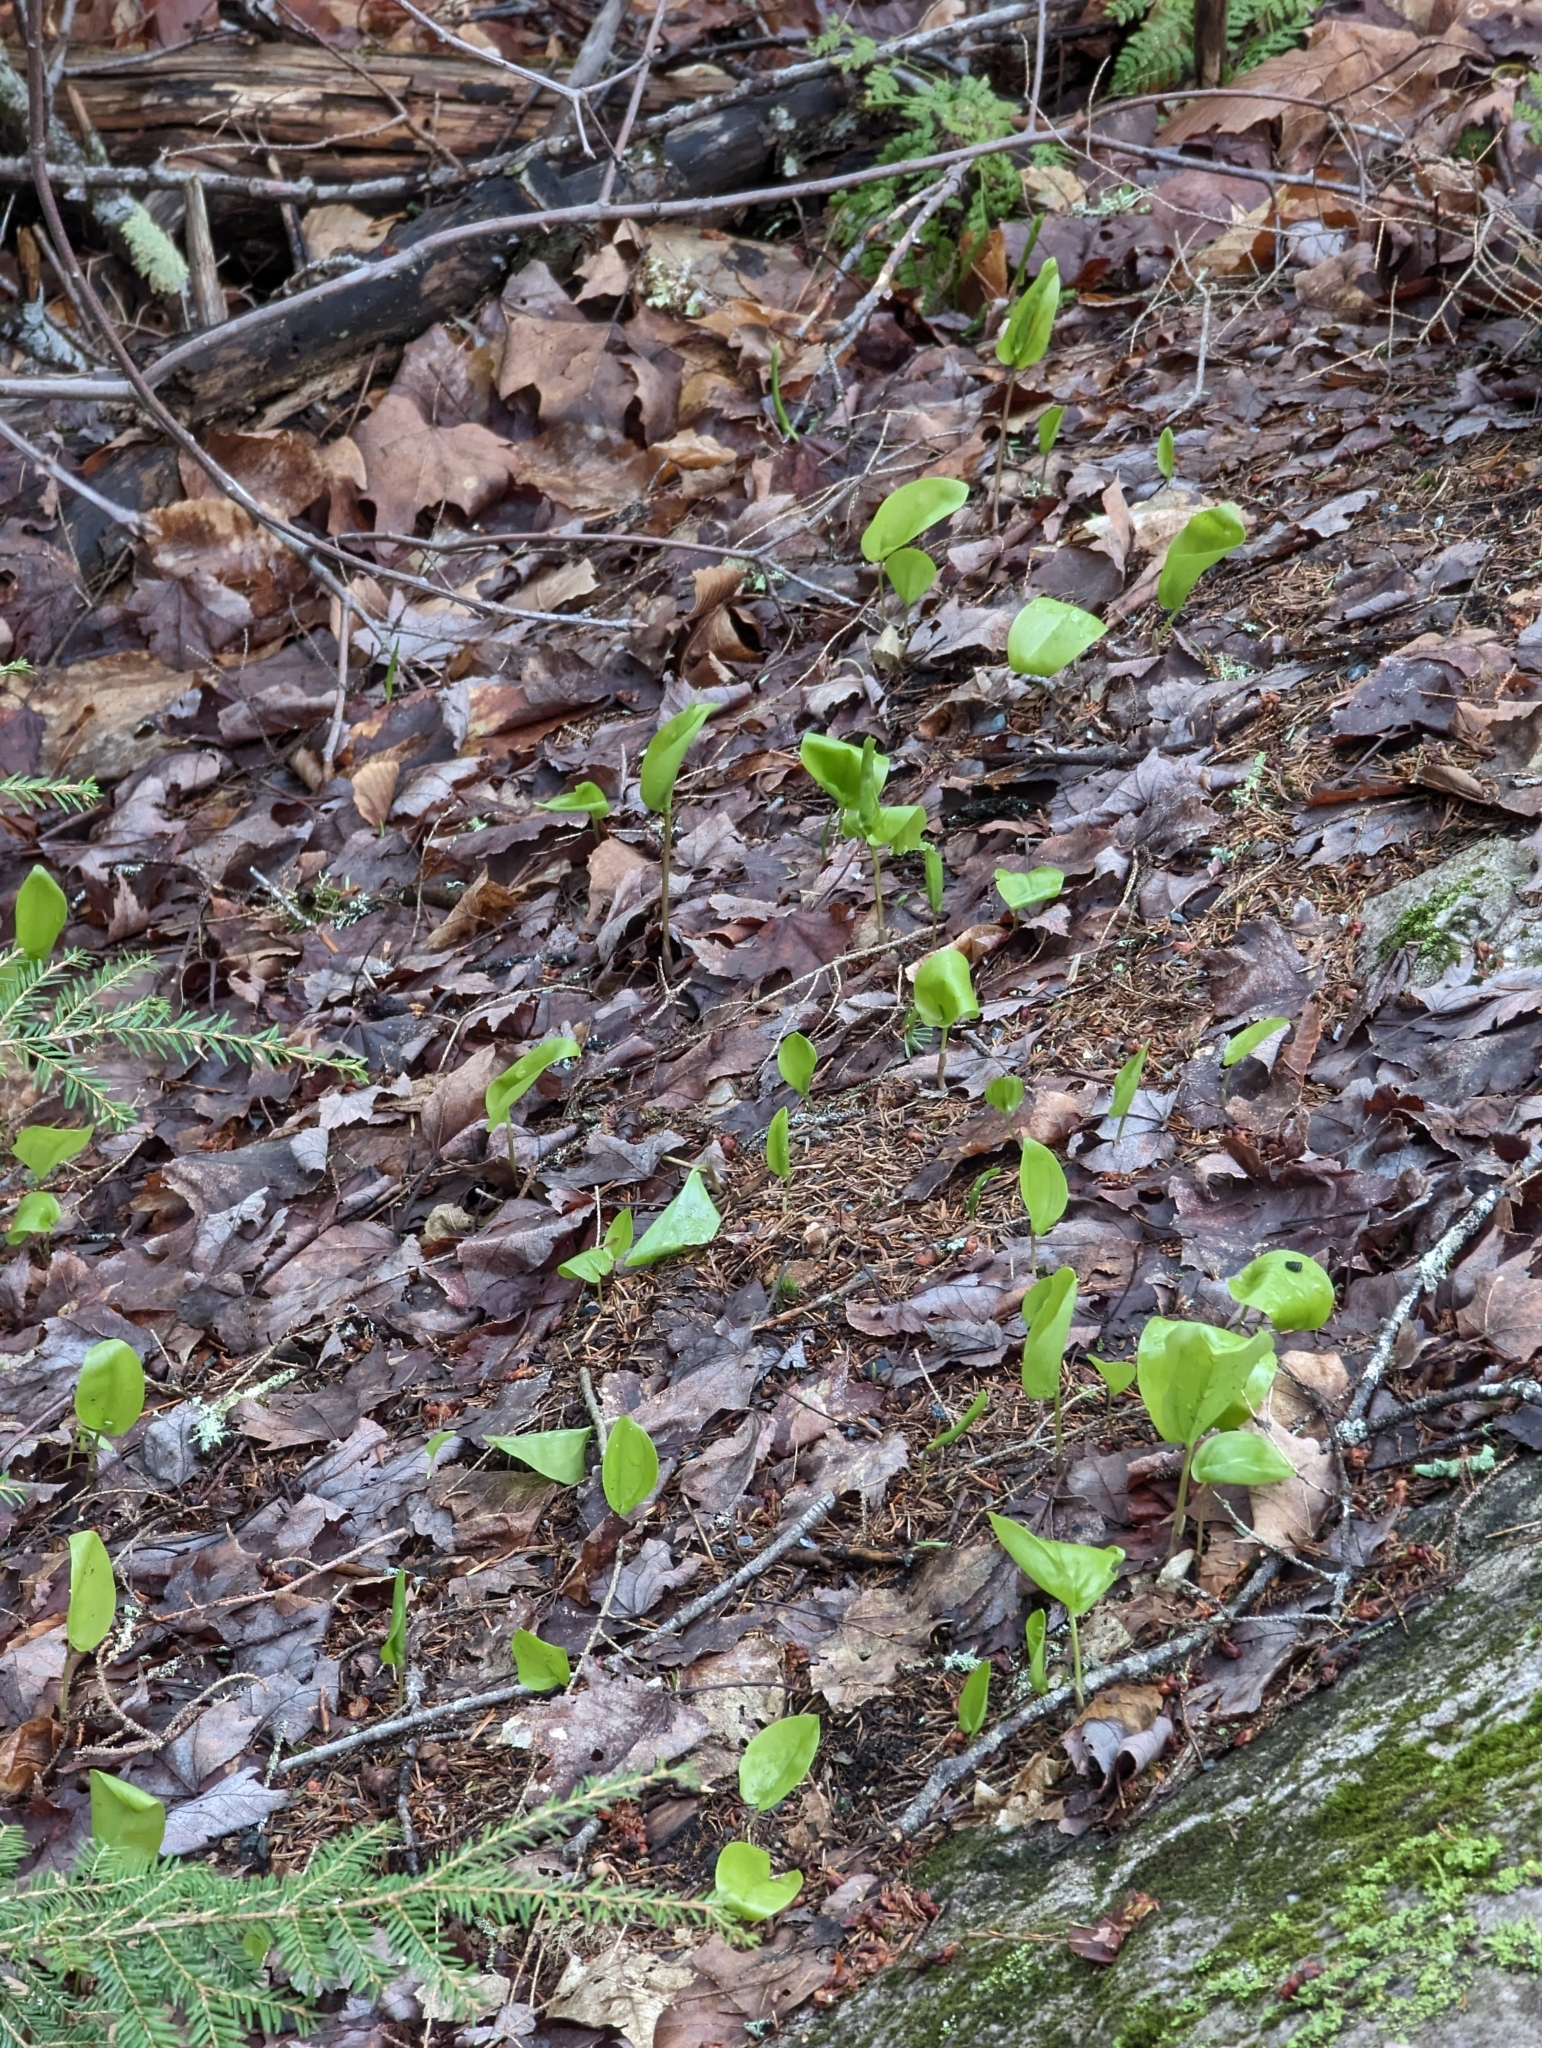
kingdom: Plantae
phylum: Tracheophyta
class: Liliopsida
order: Asparagales
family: Asparagaceae
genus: Maianthemum
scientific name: Maianthemum canadense
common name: False lily-of-the-valley
